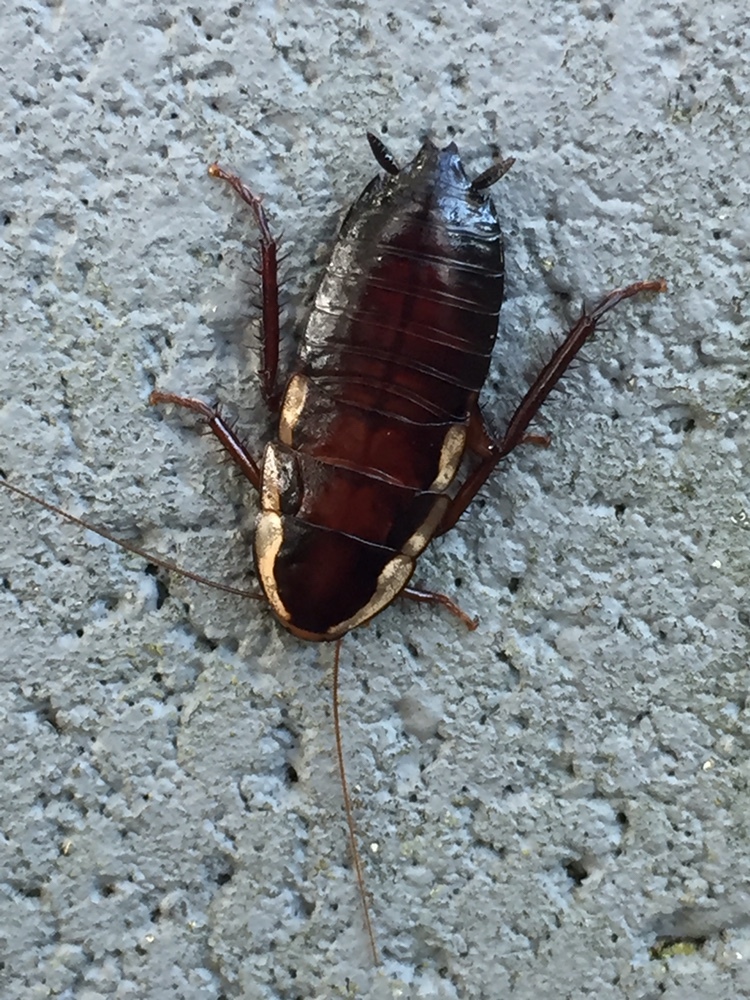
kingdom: Animalia
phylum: Arthropoda
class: Insecta
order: Blattodea
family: Blattidae
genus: Drymaplaneta
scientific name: Drymaplaneta semivitta
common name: Gisborne cockroach
